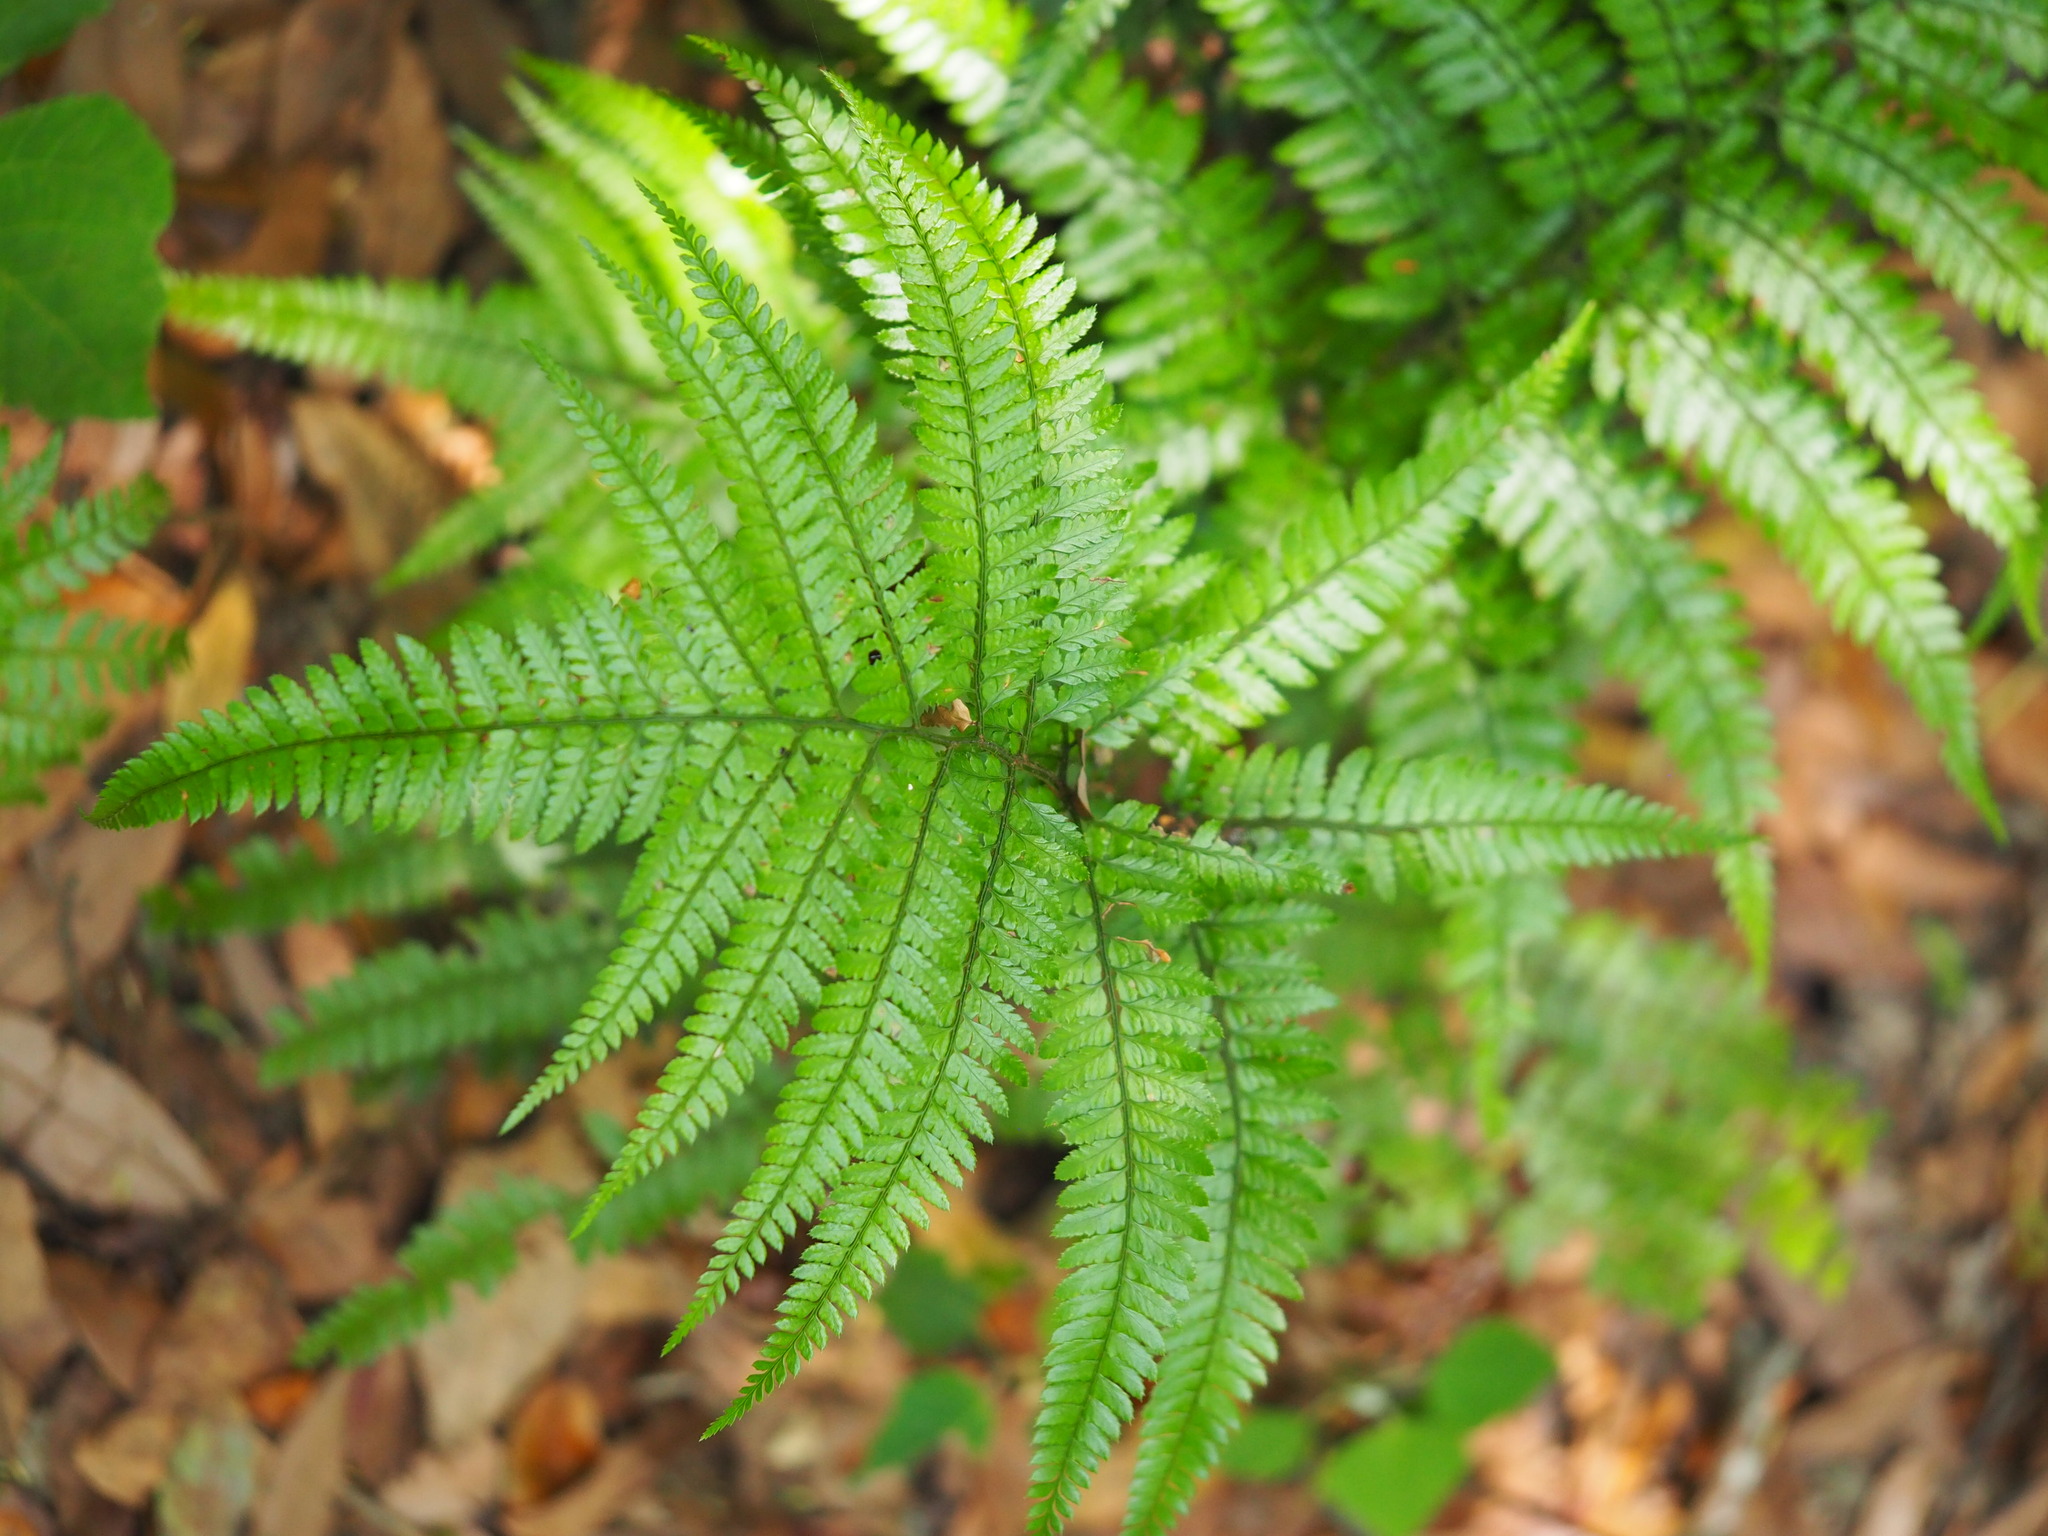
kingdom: Plantae
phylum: Tracheophyta
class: Polypodiopsida
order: Polypodiales
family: Dryopteridaceae
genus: Arachniodes
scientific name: Arachniodes aristata
